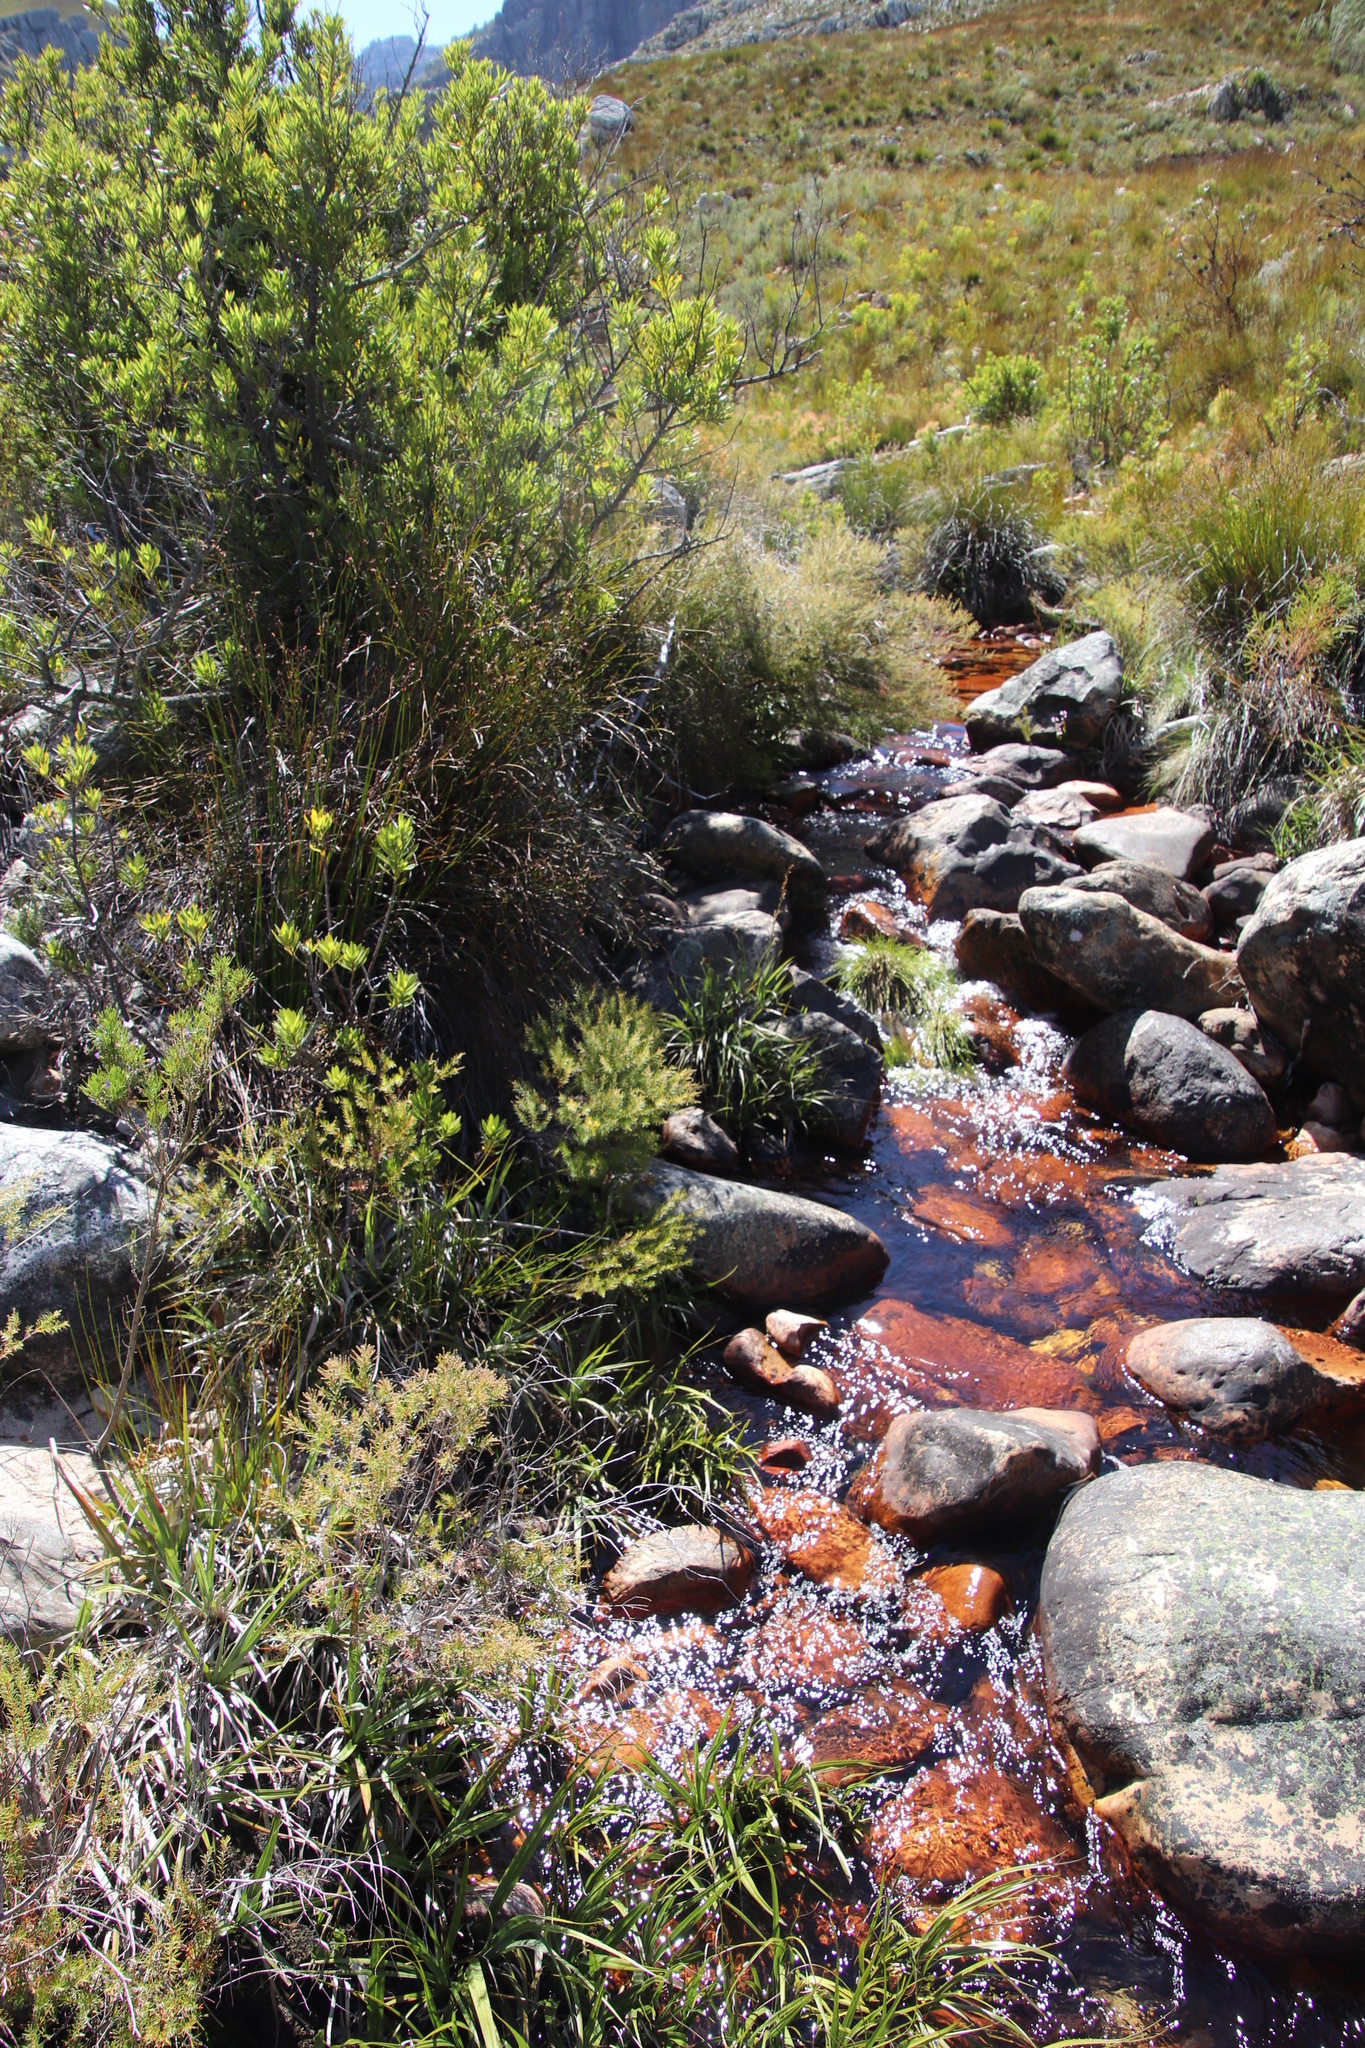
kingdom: Plantae
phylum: Tracheophyta
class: Magnoliopsida
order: Bruniales
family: Bruniaceae
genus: Brunia
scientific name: Brunia africana
